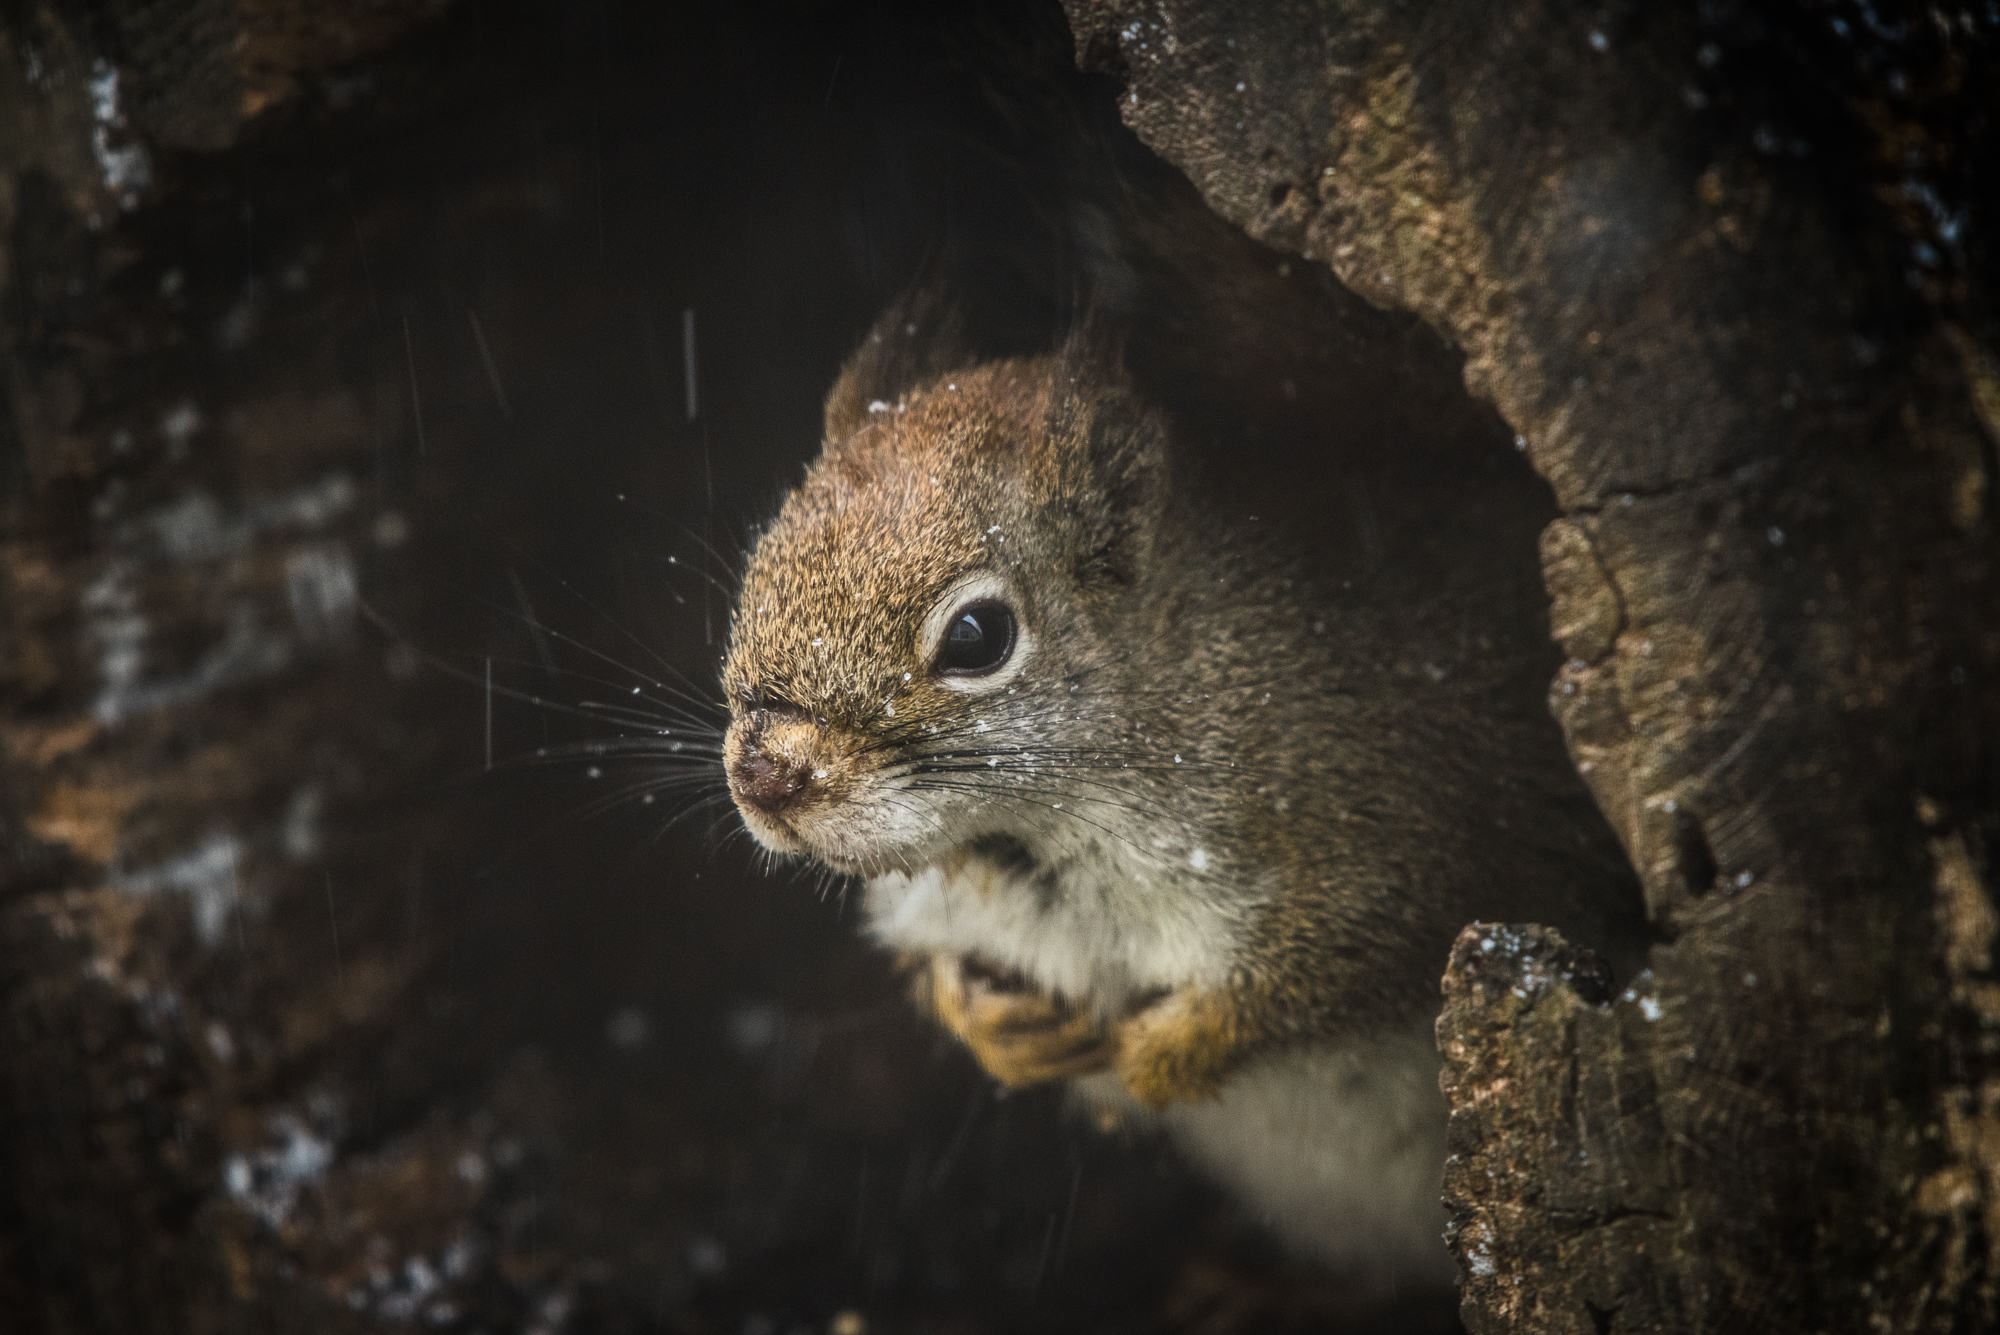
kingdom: Animalia
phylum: Chordata
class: Mammalia
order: Rodentia
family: Sciuridae
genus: Tamiasciurus
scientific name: Tamiasciurus hudsonicus
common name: Red squirrel
